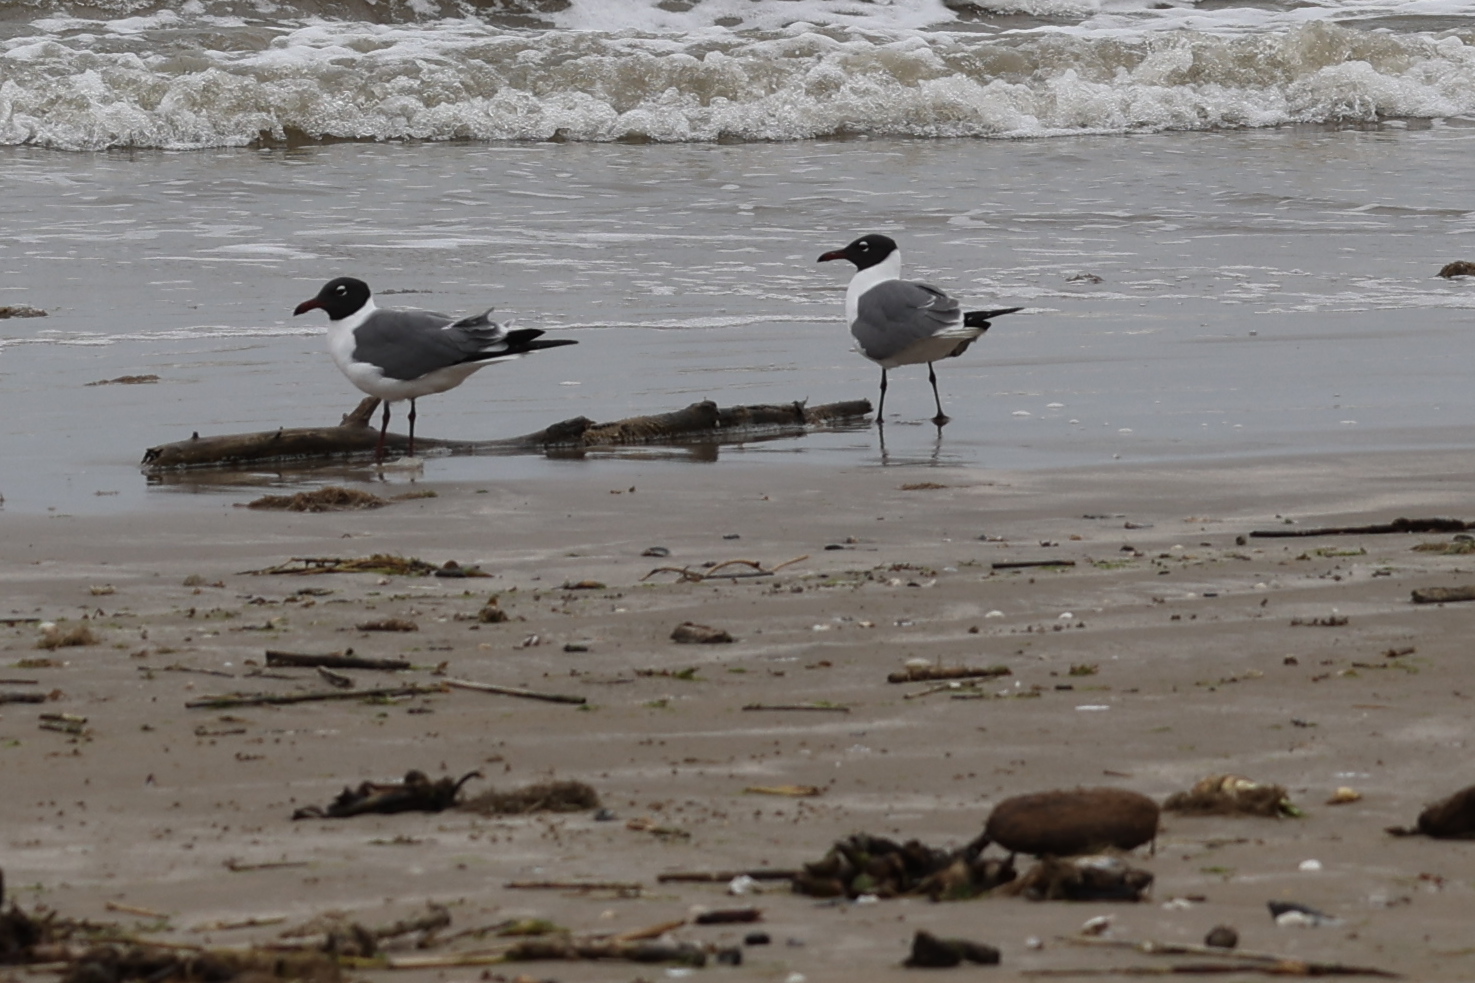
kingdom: Animalia
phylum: Chordata
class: Aves
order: Charadriiformes
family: Laridae
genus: Leucophaeus
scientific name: Leucophaeus atricilla
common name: Laughing gull
